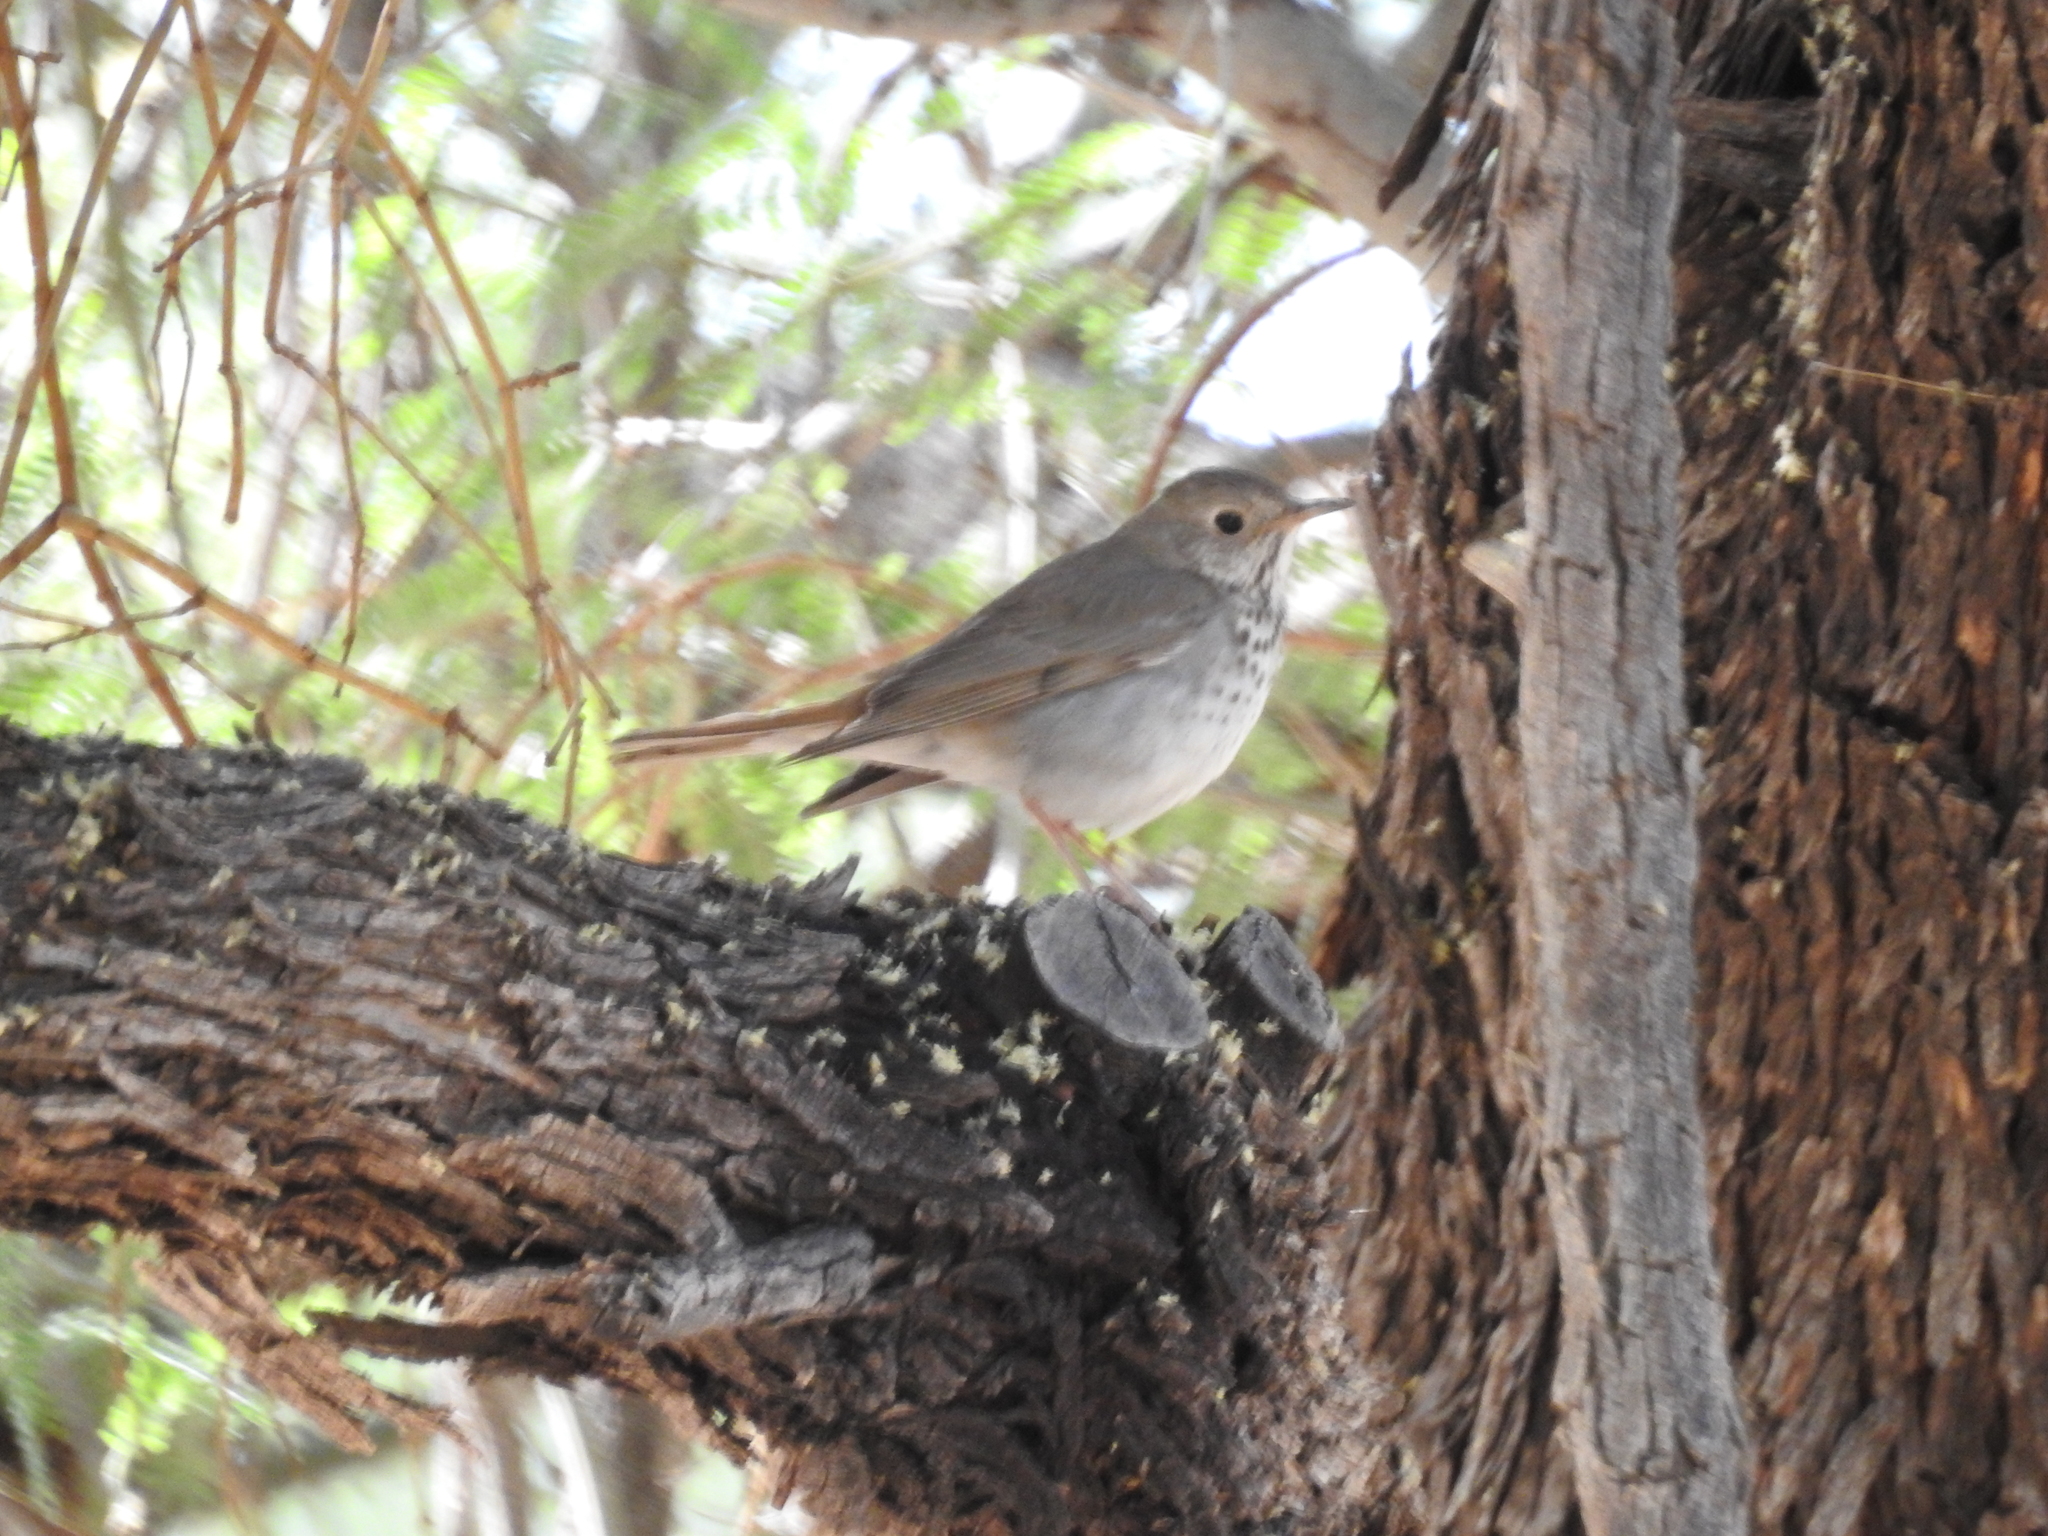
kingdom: Animalia
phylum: Chordata
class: Aves
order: Passeriformes
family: Turdidae
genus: Catharus
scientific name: Catharus guttatus
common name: Hermit thrush
